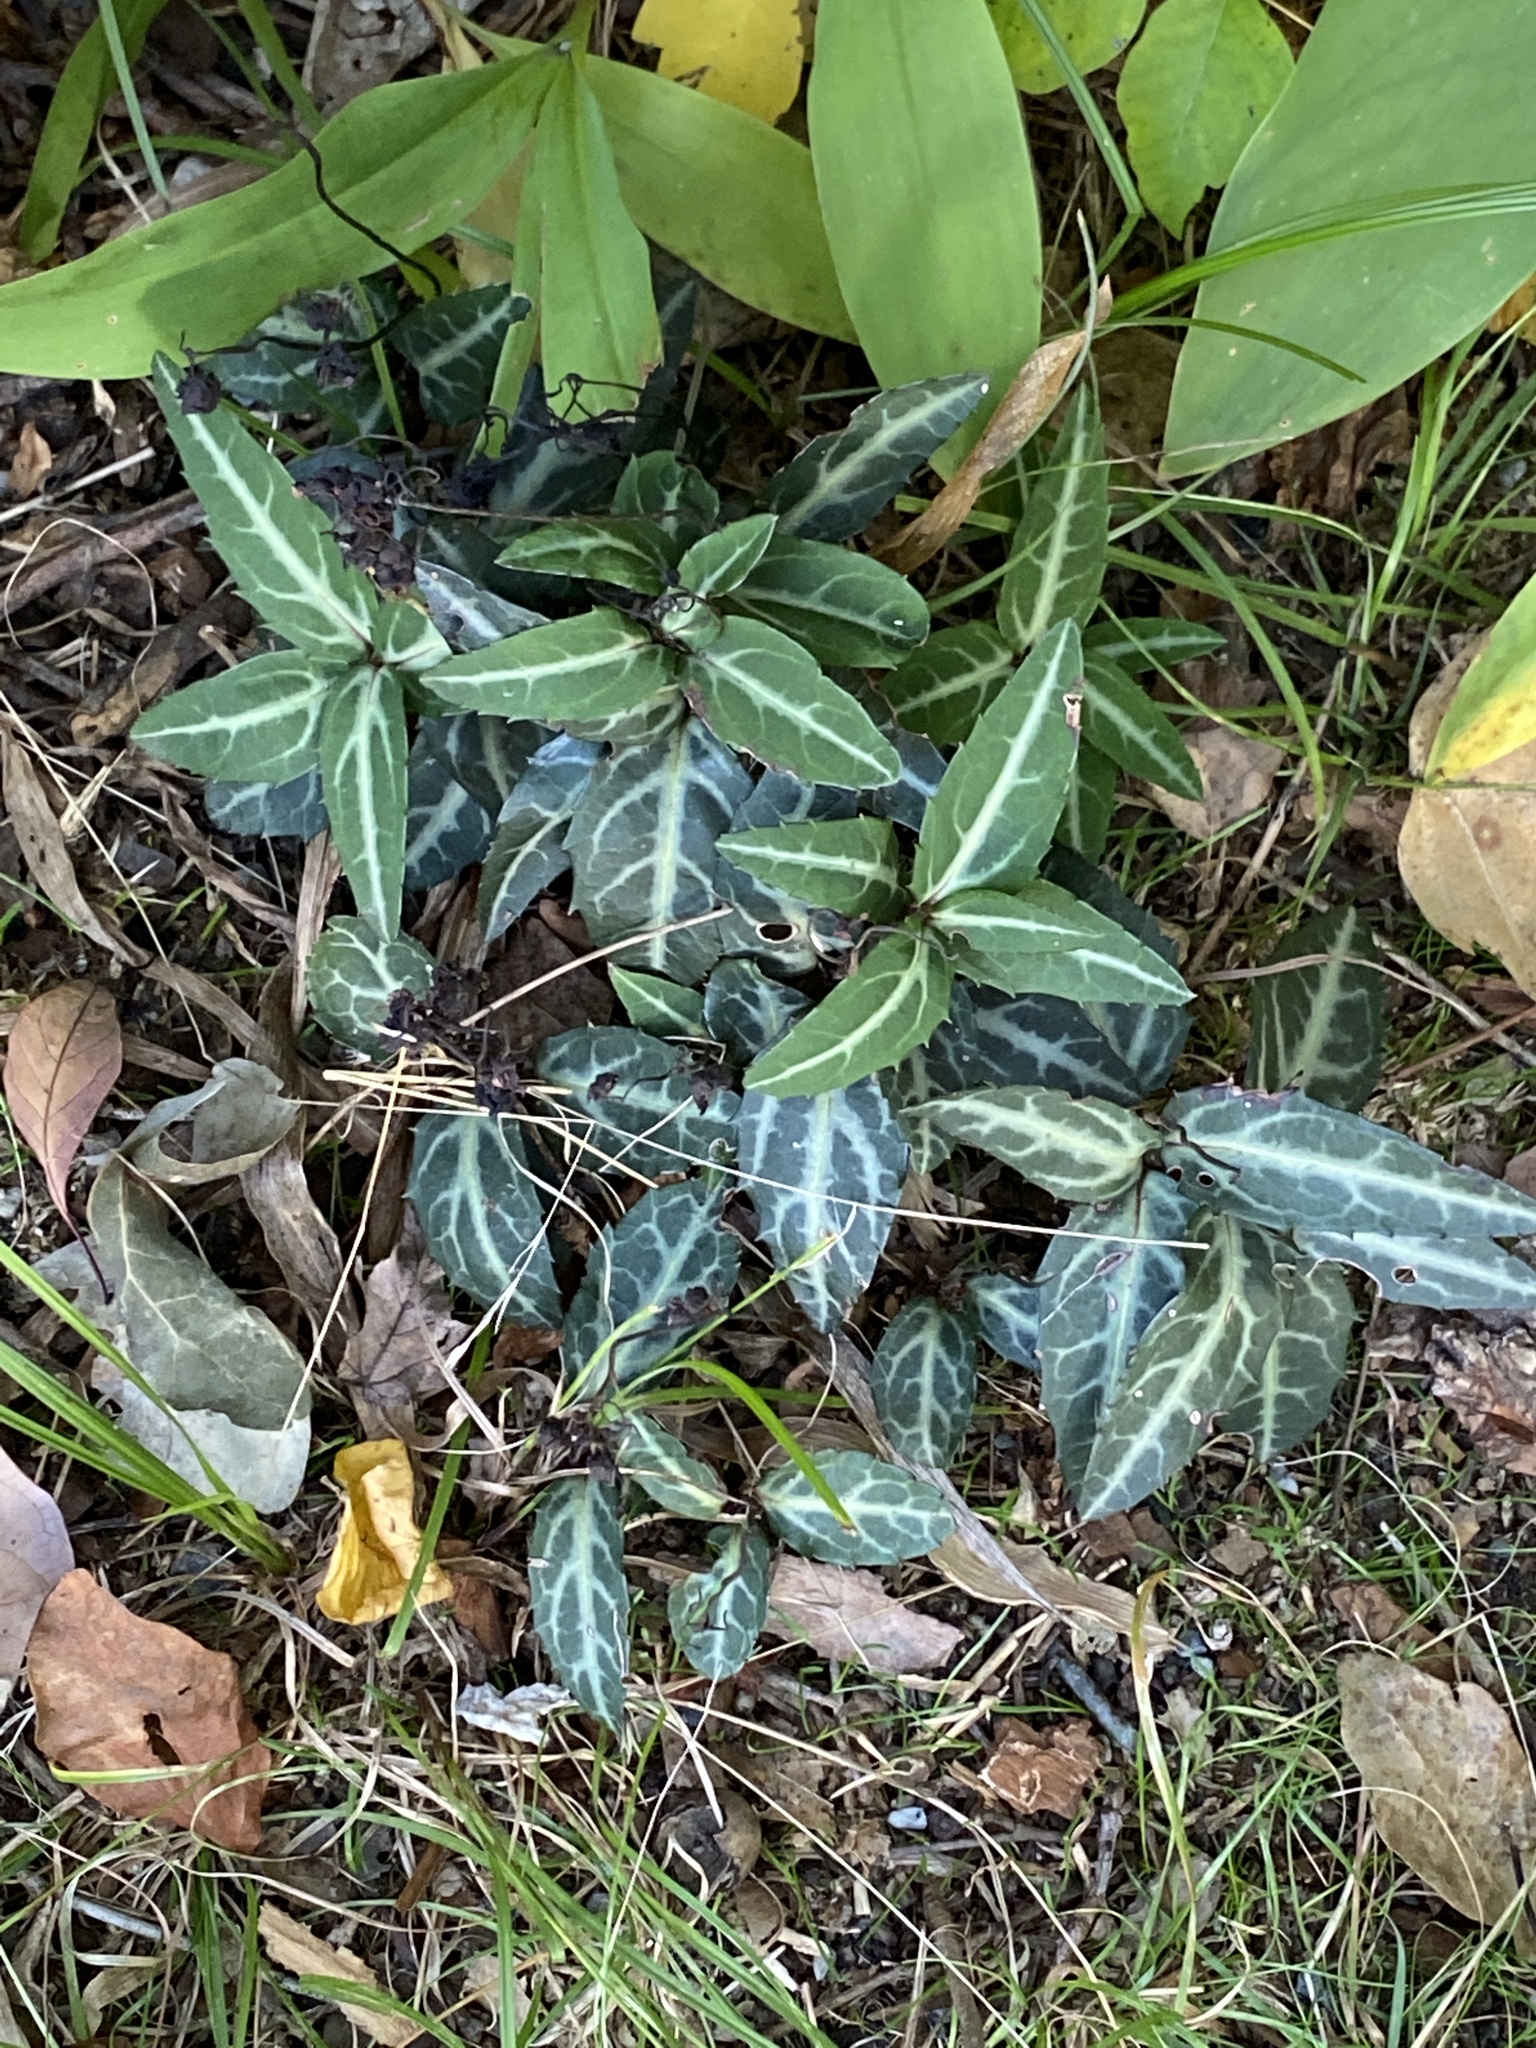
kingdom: Plantae
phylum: Tracheophyta
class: Magnoliopsida
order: Ericales
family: Ericaceae
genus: Chimaphila
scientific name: Chimaphila maculata
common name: Spotted pipsissewa
